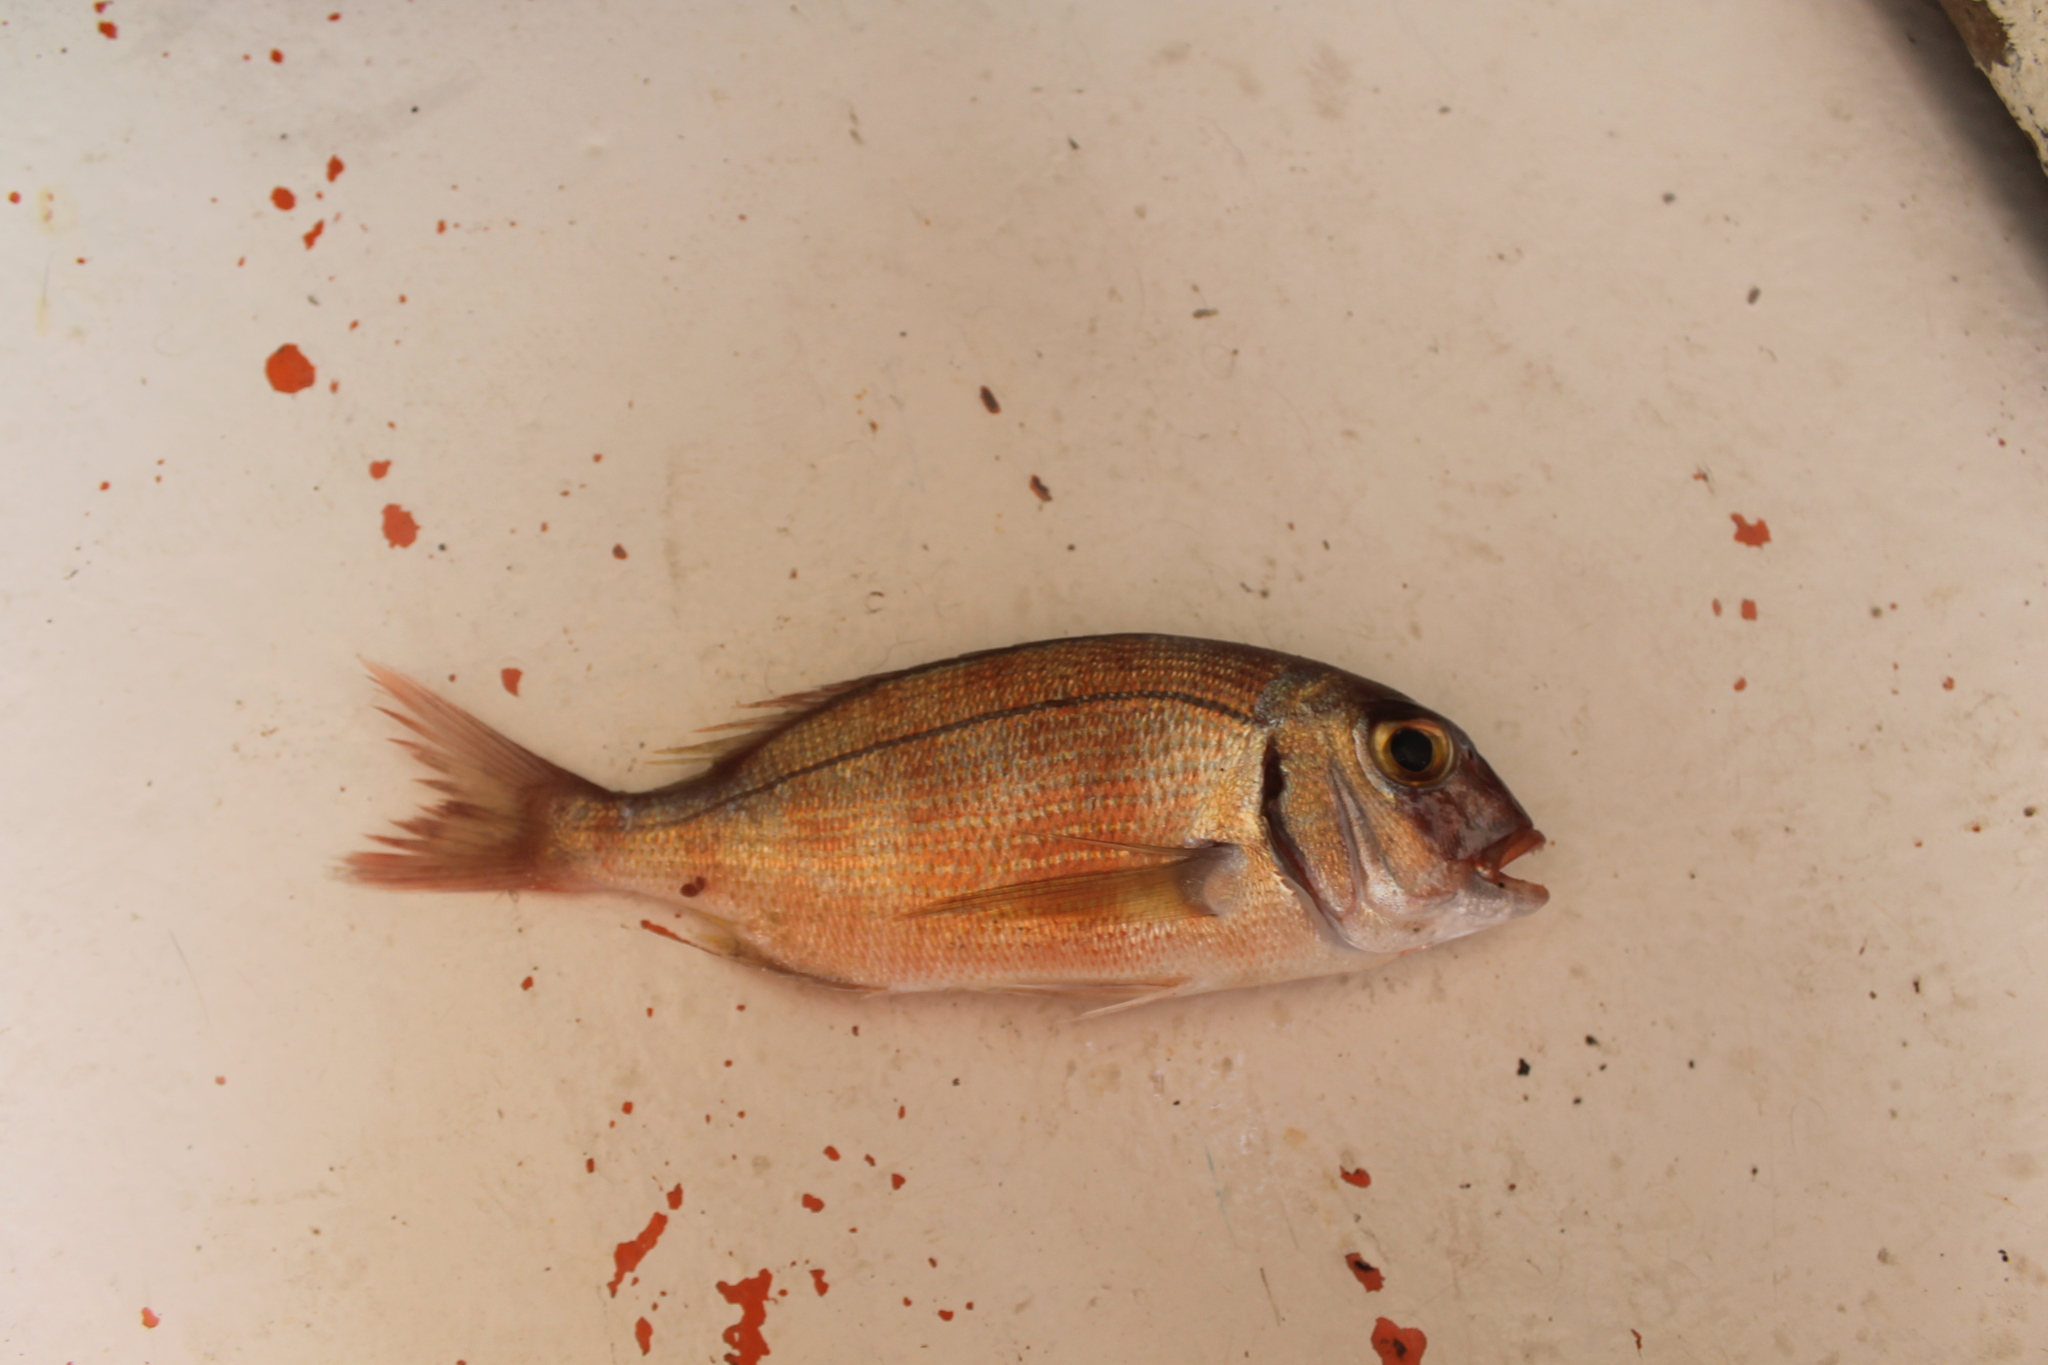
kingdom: Animalia
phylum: Chordata
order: Perciformes
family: Sparidae
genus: Pagrus
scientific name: Pagrus pagrus
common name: Red porgy
